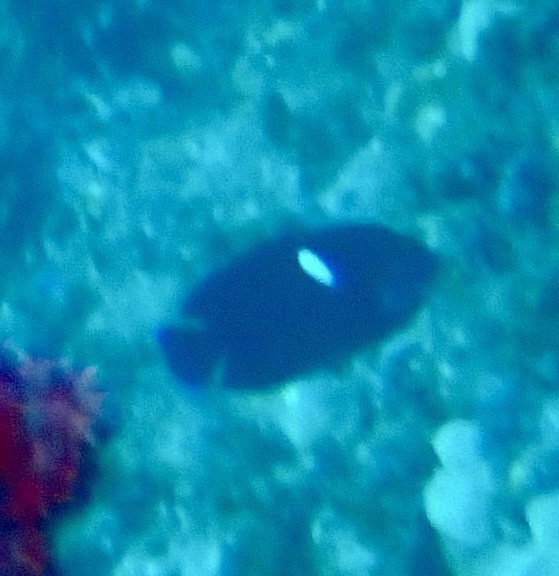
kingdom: Animalia
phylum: Chordata
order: Perciformes
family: Pomacanthidae
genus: Centropyge
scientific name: Centropyge tibicen
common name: Keyhole angelfish
